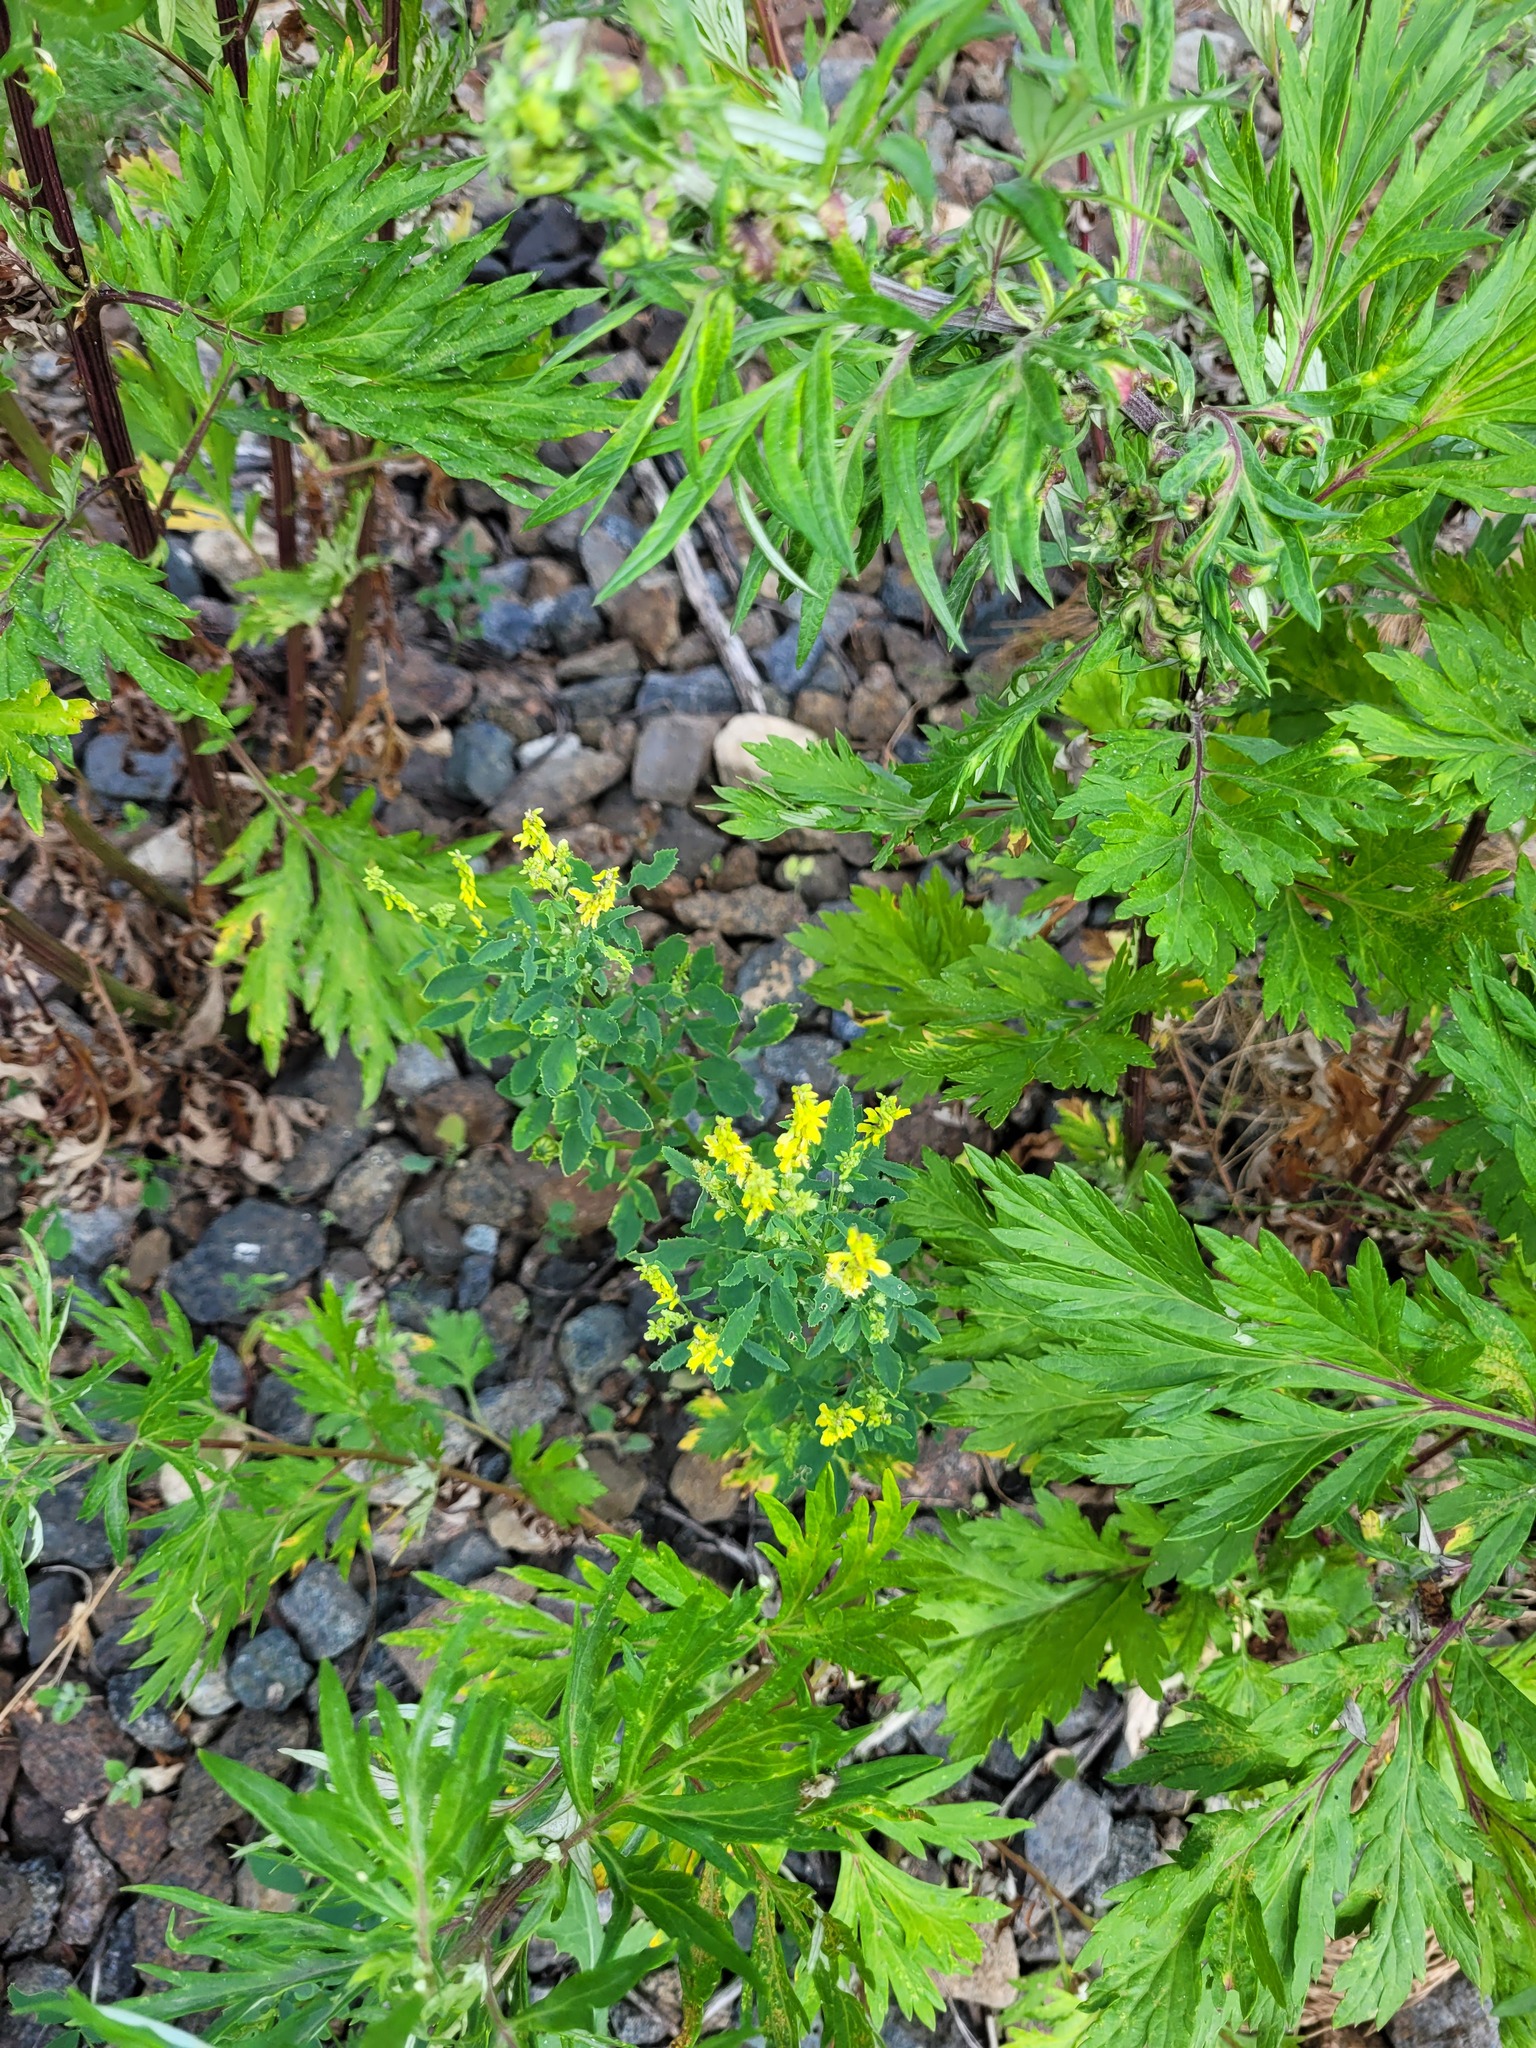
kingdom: Plantae
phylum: Tracheophyta
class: Magnoliopsida
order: Fabales
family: Fabaceae
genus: Melilotus
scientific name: Melilotus officinalis
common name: Sweetclover
